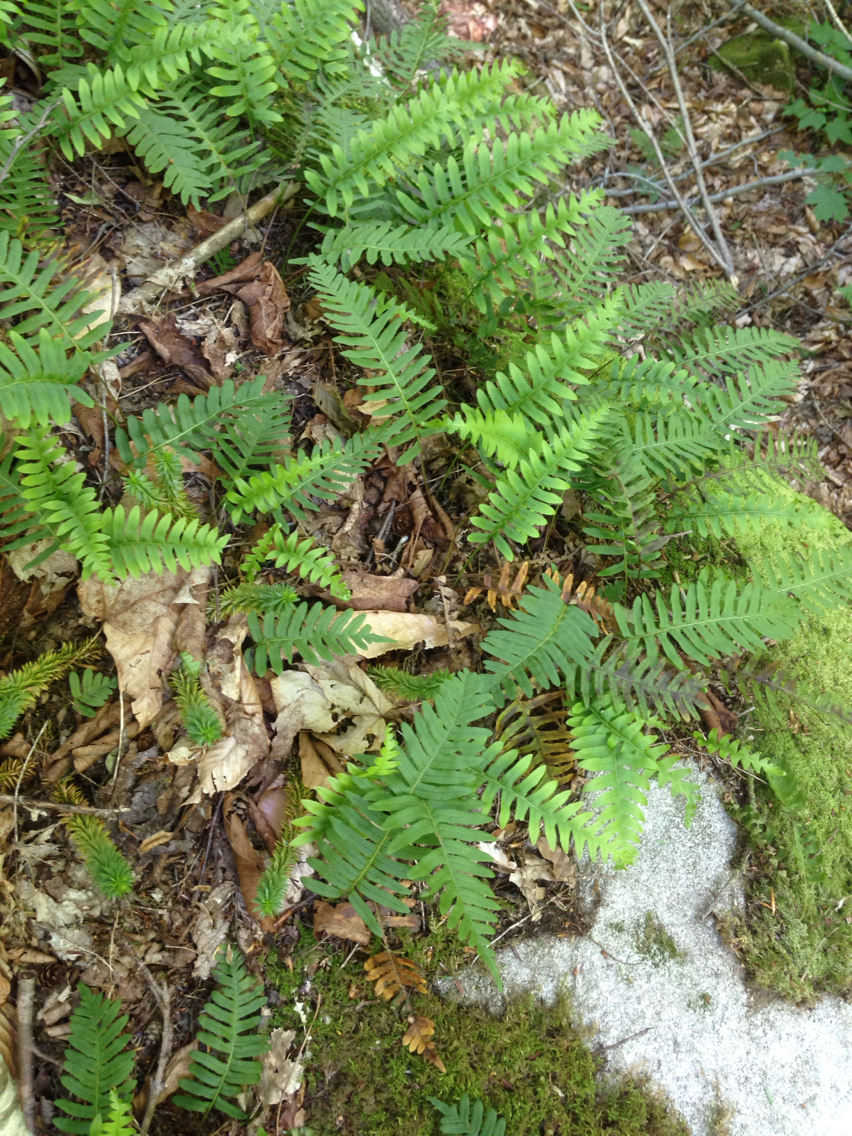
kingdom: Plantae
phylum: Tracheophyta
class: Polypodiopsida
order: Polypodiales
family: Polypodiaceae
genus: Polypodium
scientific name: Polypodium virginianum
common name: American wall fern
